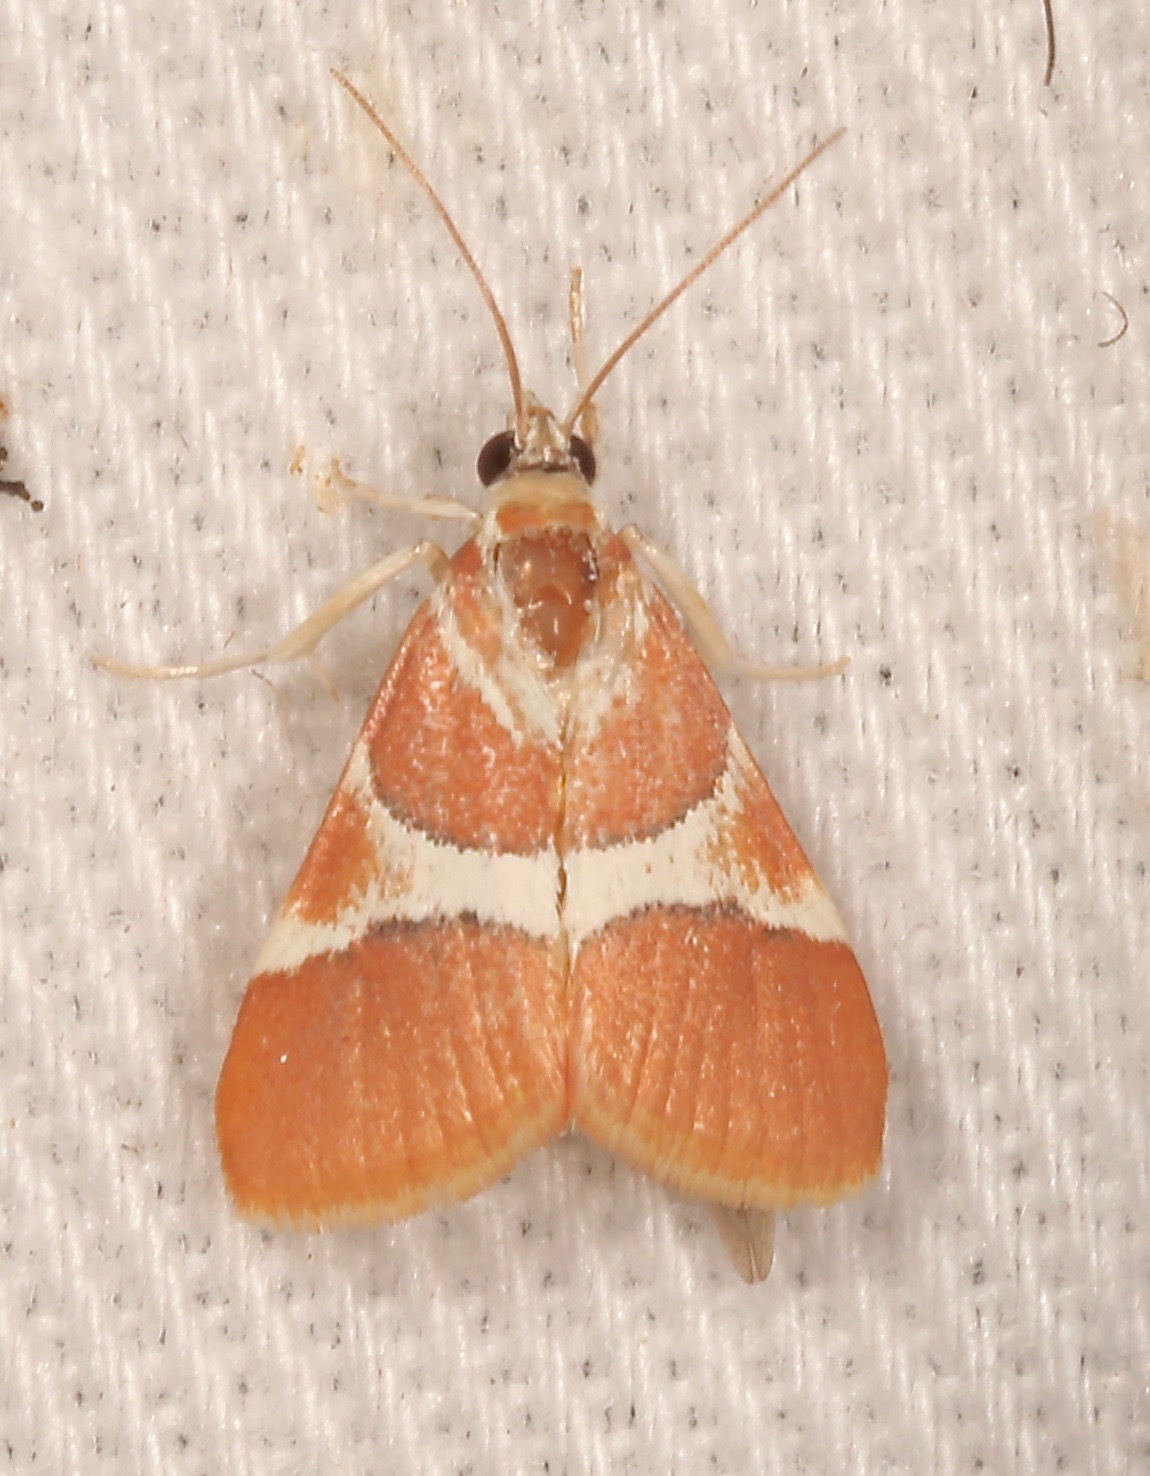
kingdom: Animalia
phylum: Arthropoda
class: Insecta
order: Lepidoptera
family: Crambidae
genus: Jativa
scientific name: Jativa castanealis
